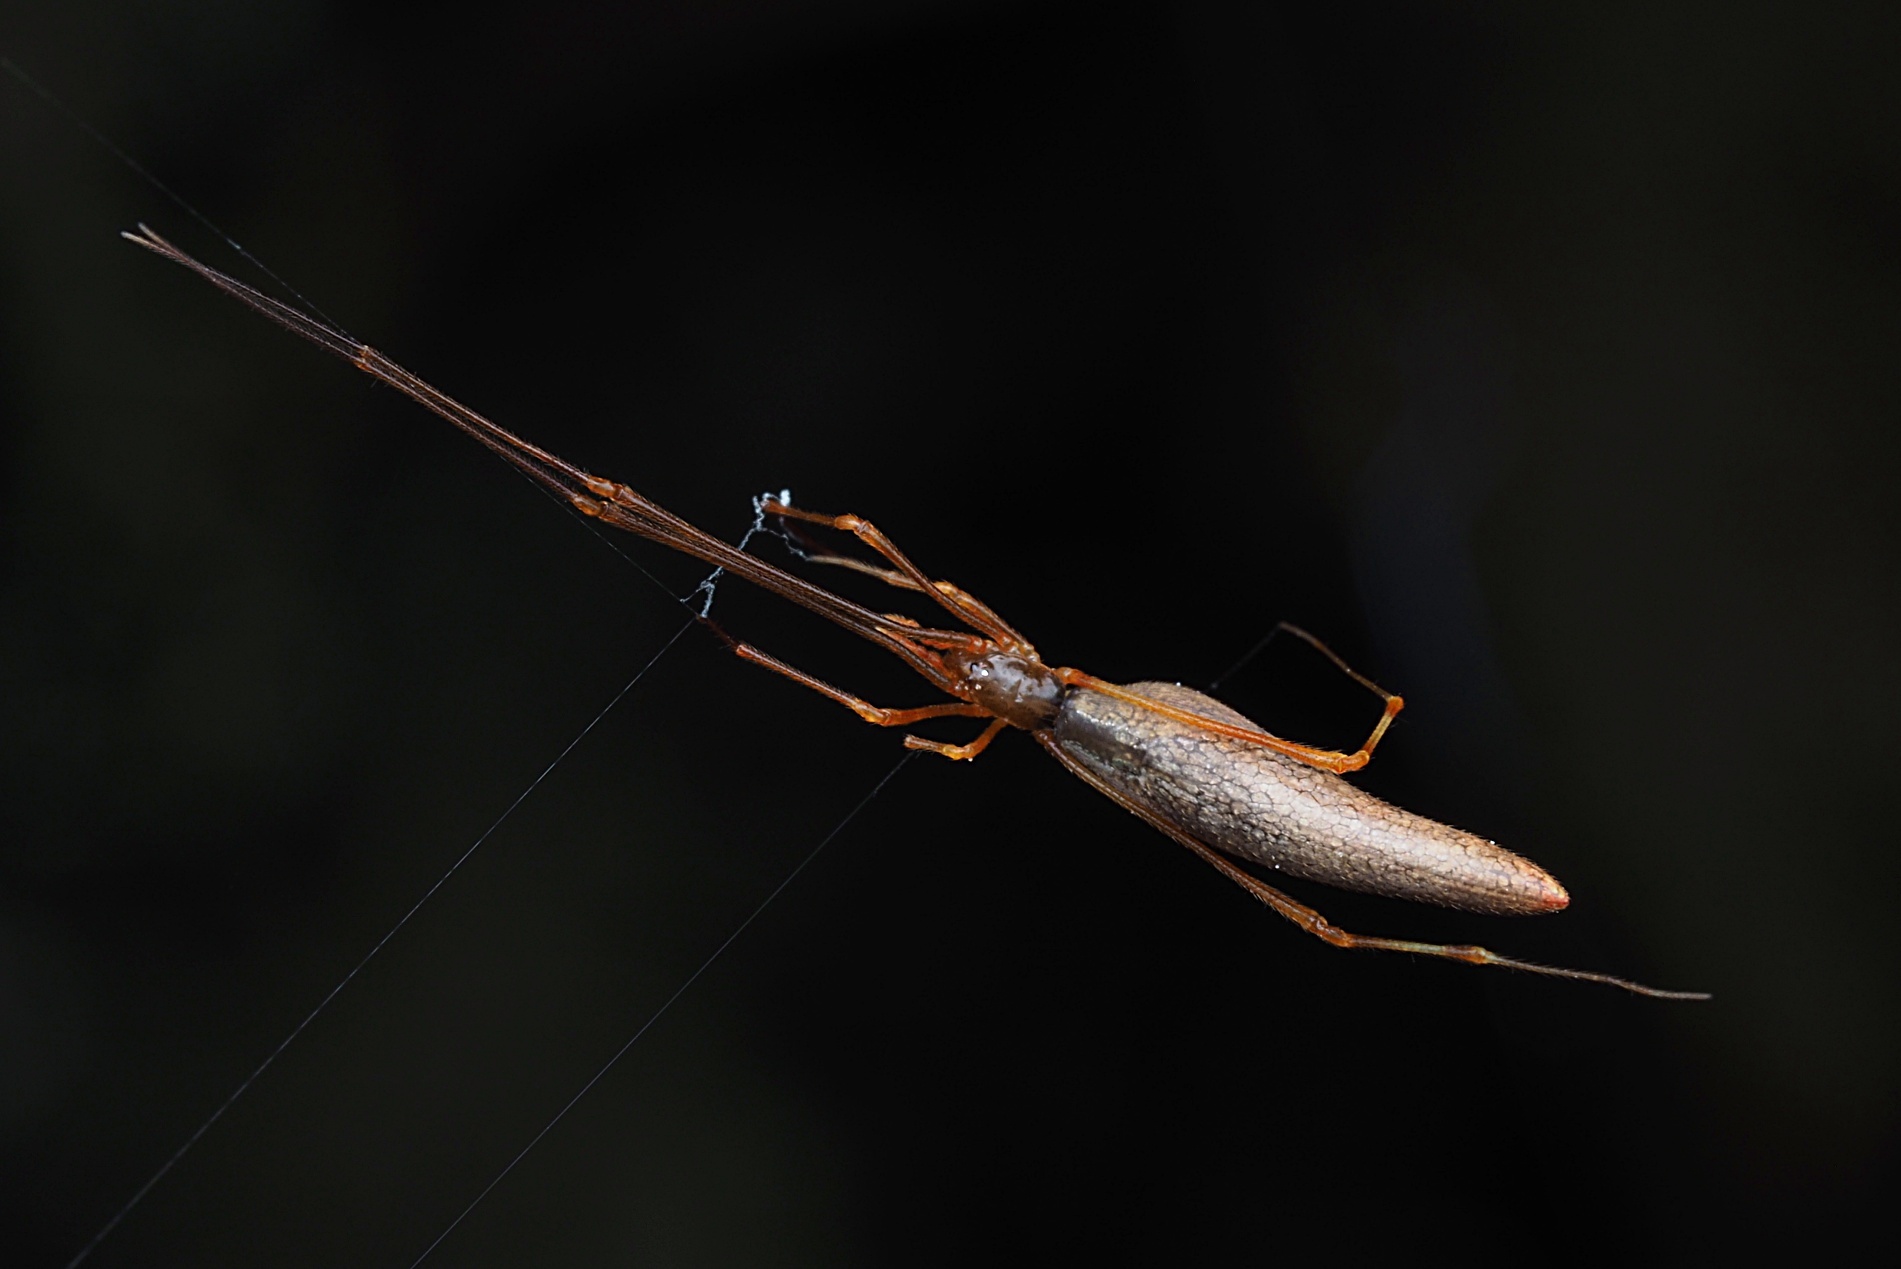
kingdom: Animalia
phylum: Arthropoda
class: Arachnida
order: Araneae
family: Theridiidae
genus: Rhomphaea
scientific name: Rhomphaea urquharti
